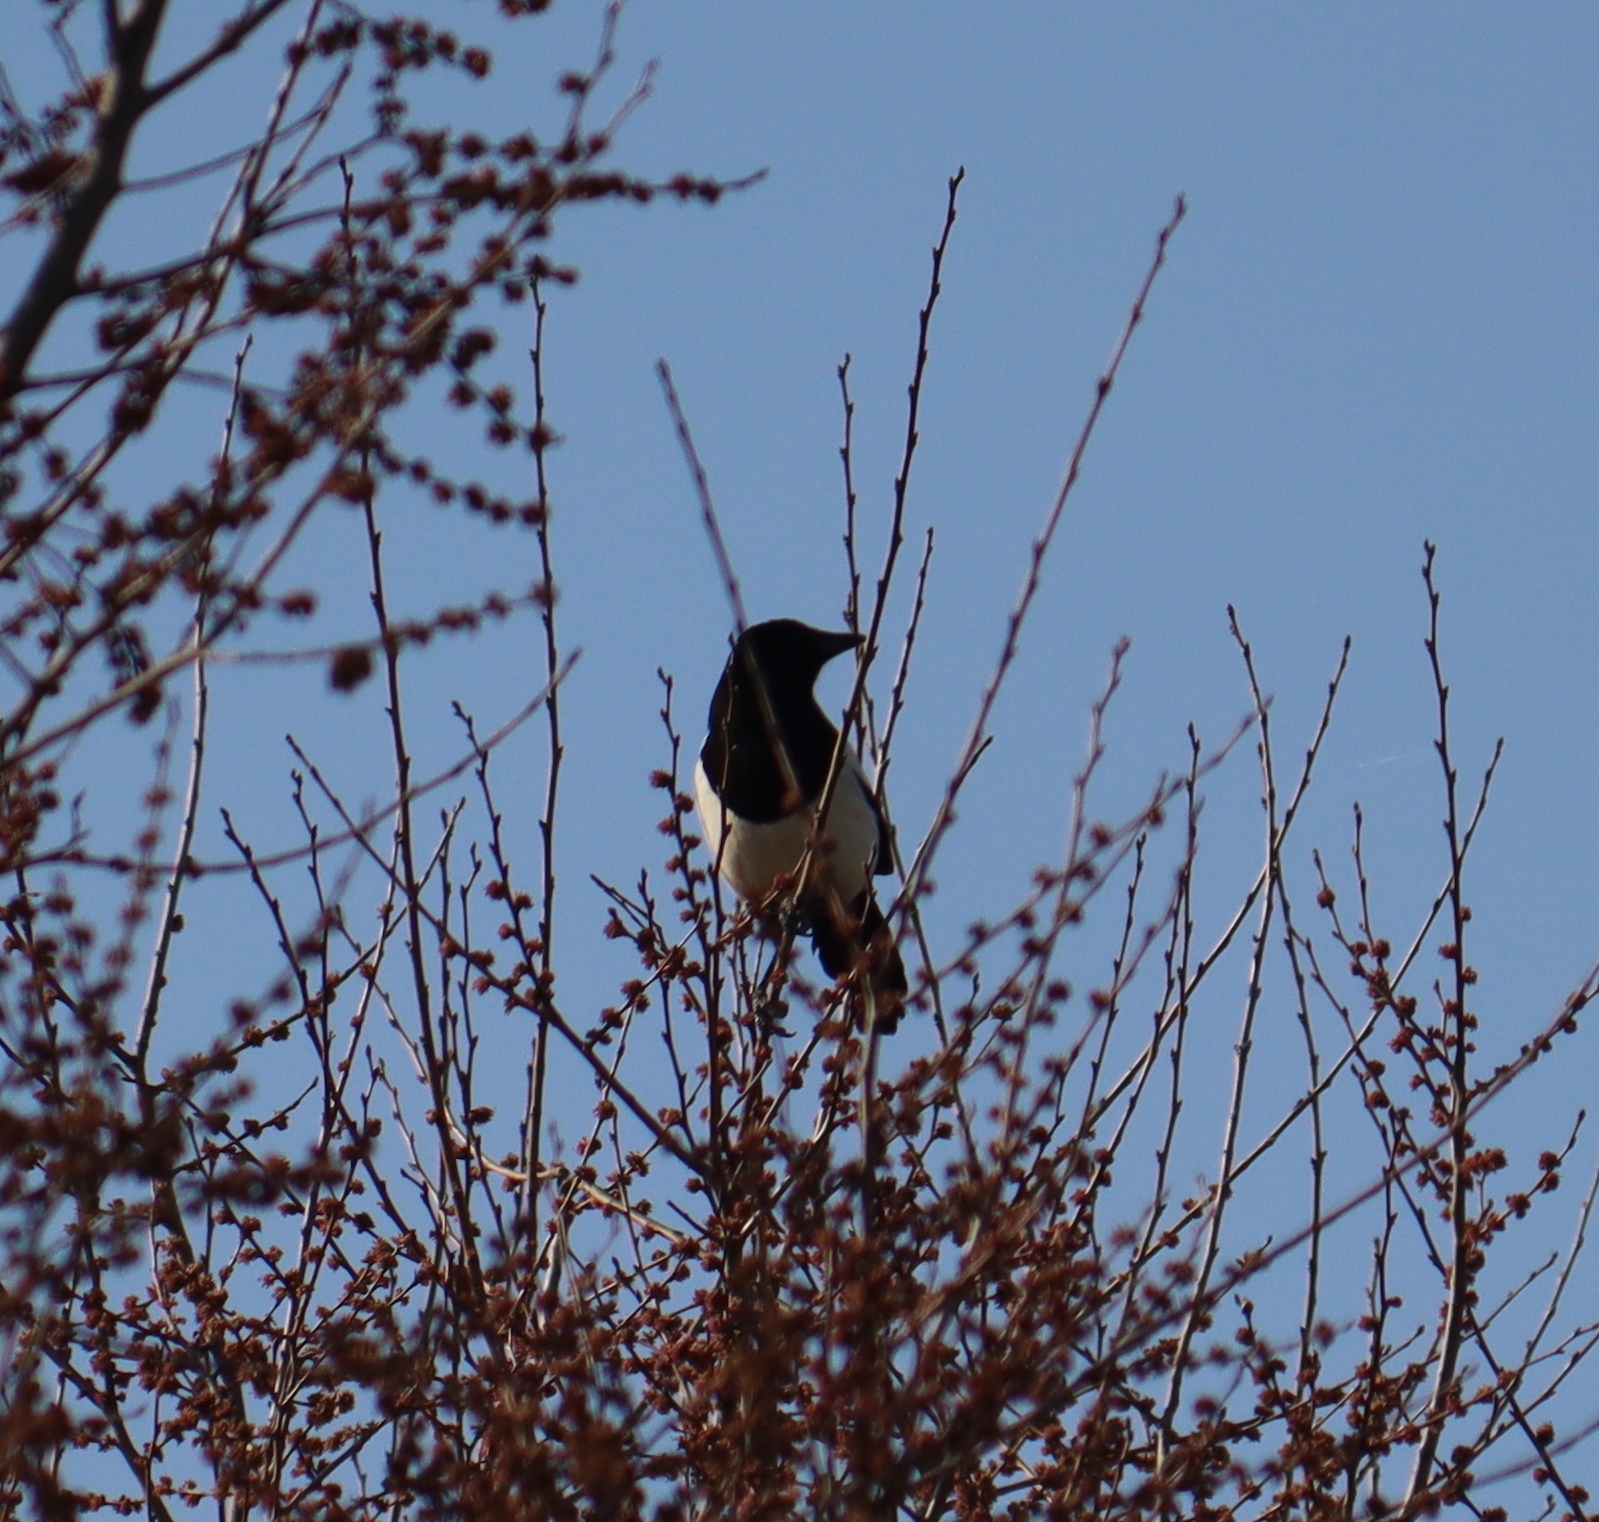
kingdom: Animalia
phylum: Chordata
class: Aves
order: Passeriformes
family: Corvidae
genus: Pica
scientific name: Pica pica
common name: Eurasian magpie
